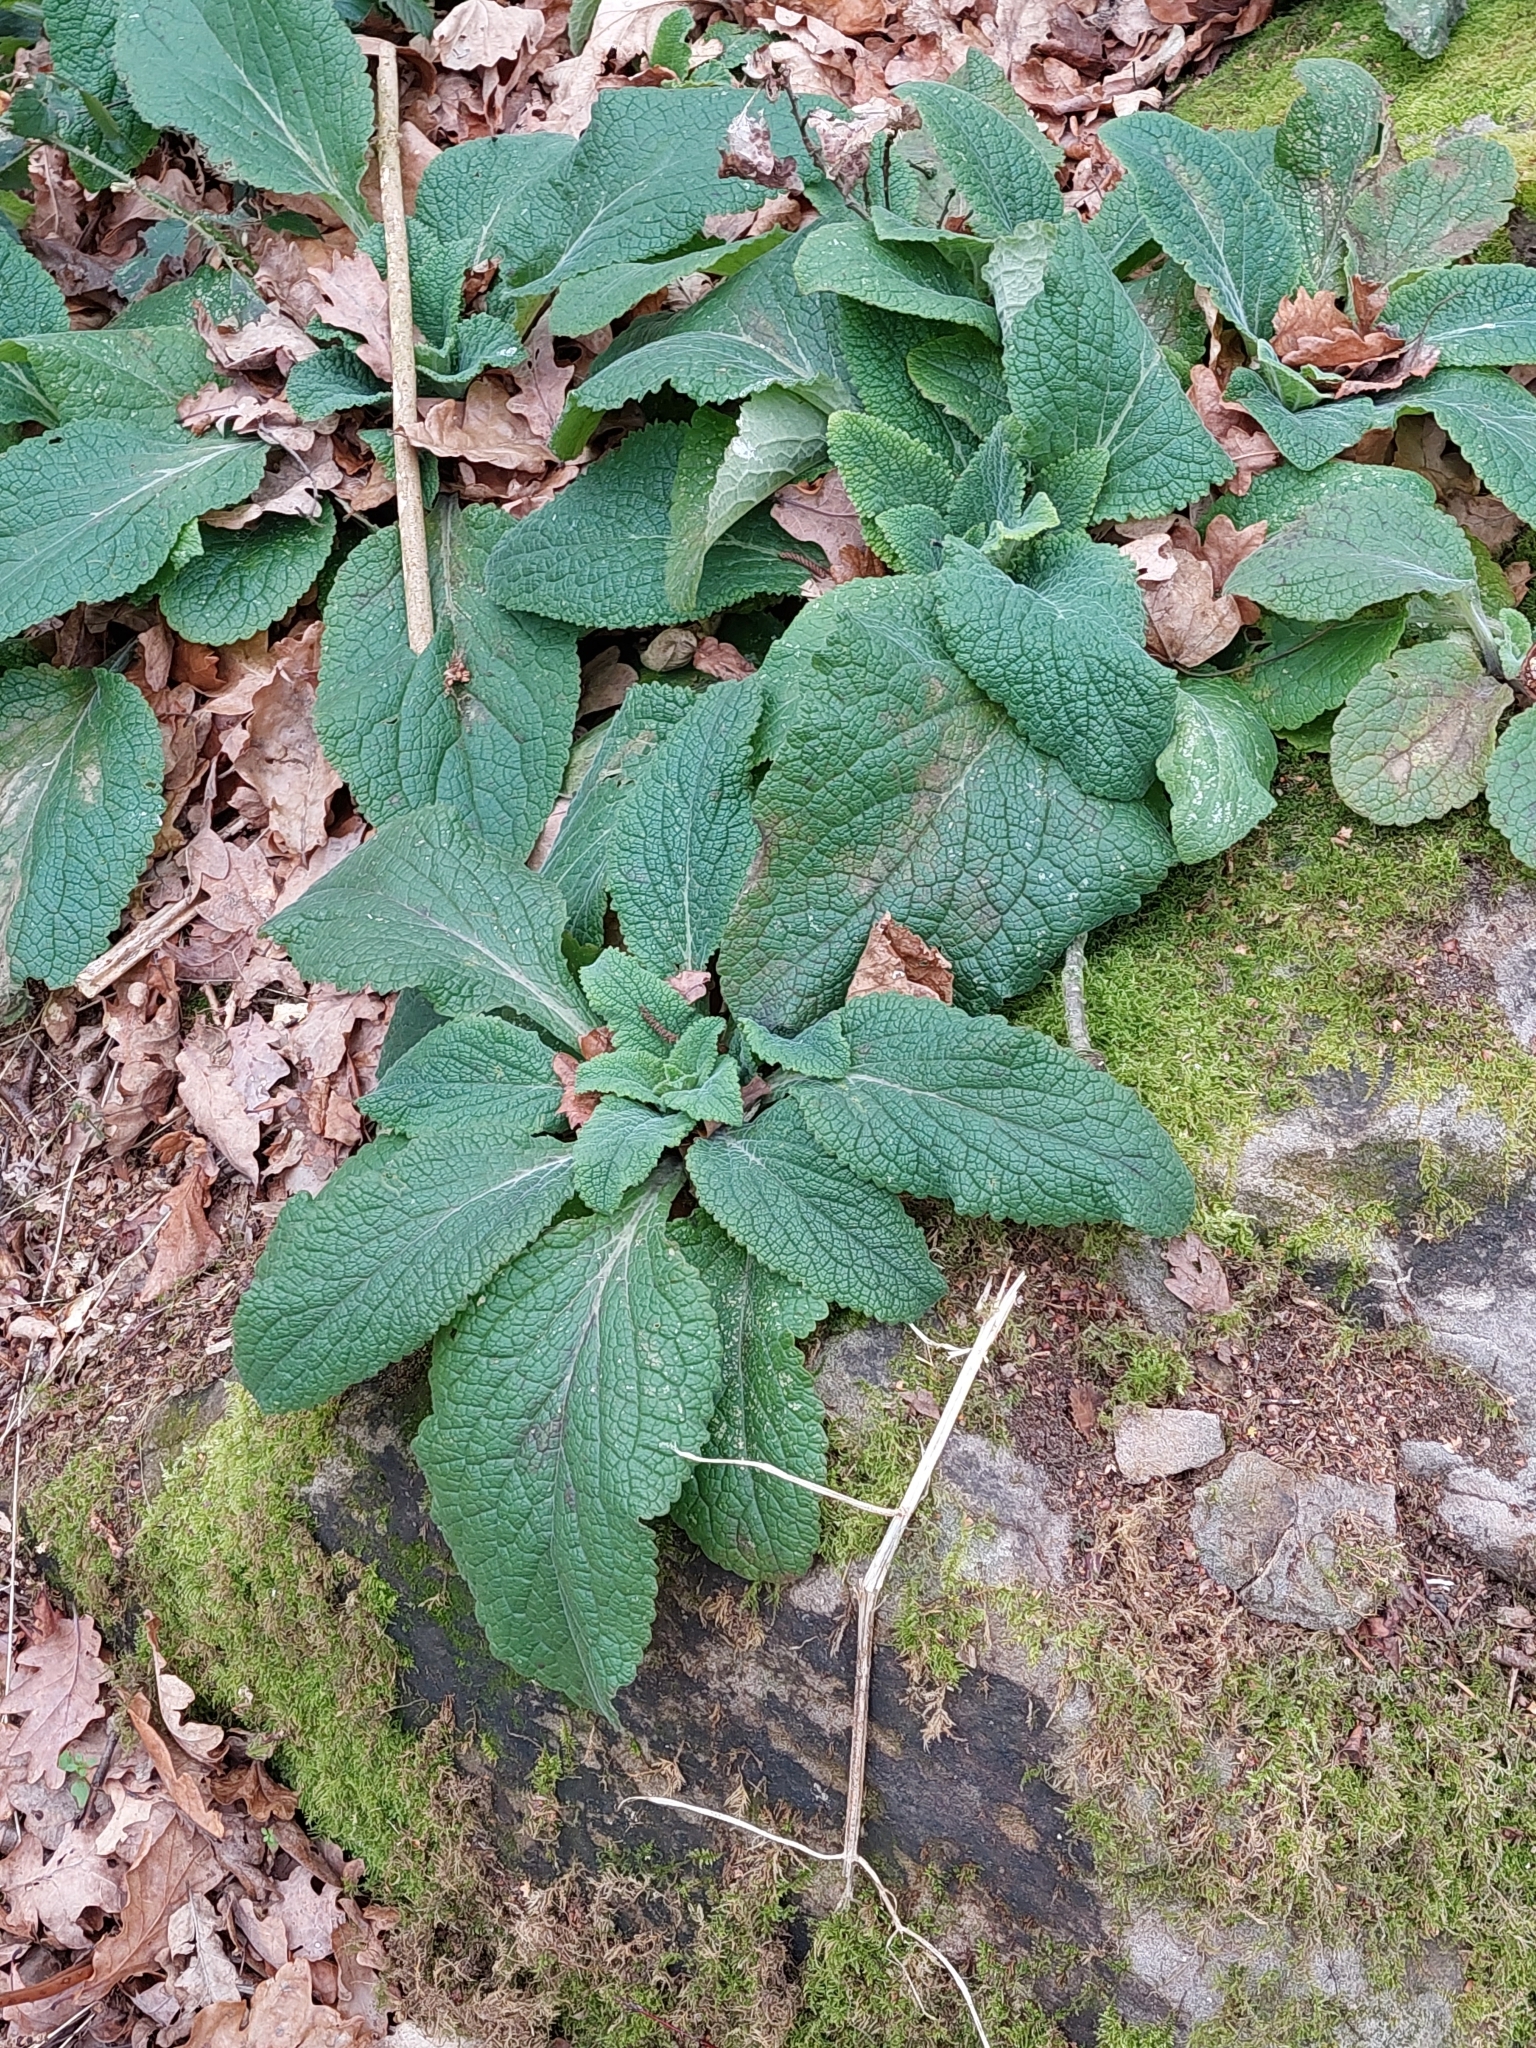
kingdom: Plantae
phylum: Tracheophyta
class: Magnoliopsida
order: Lamiales
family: Plantaginaceae
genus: Digitalis
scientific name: Digitalis purpurea
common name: Foxglove
